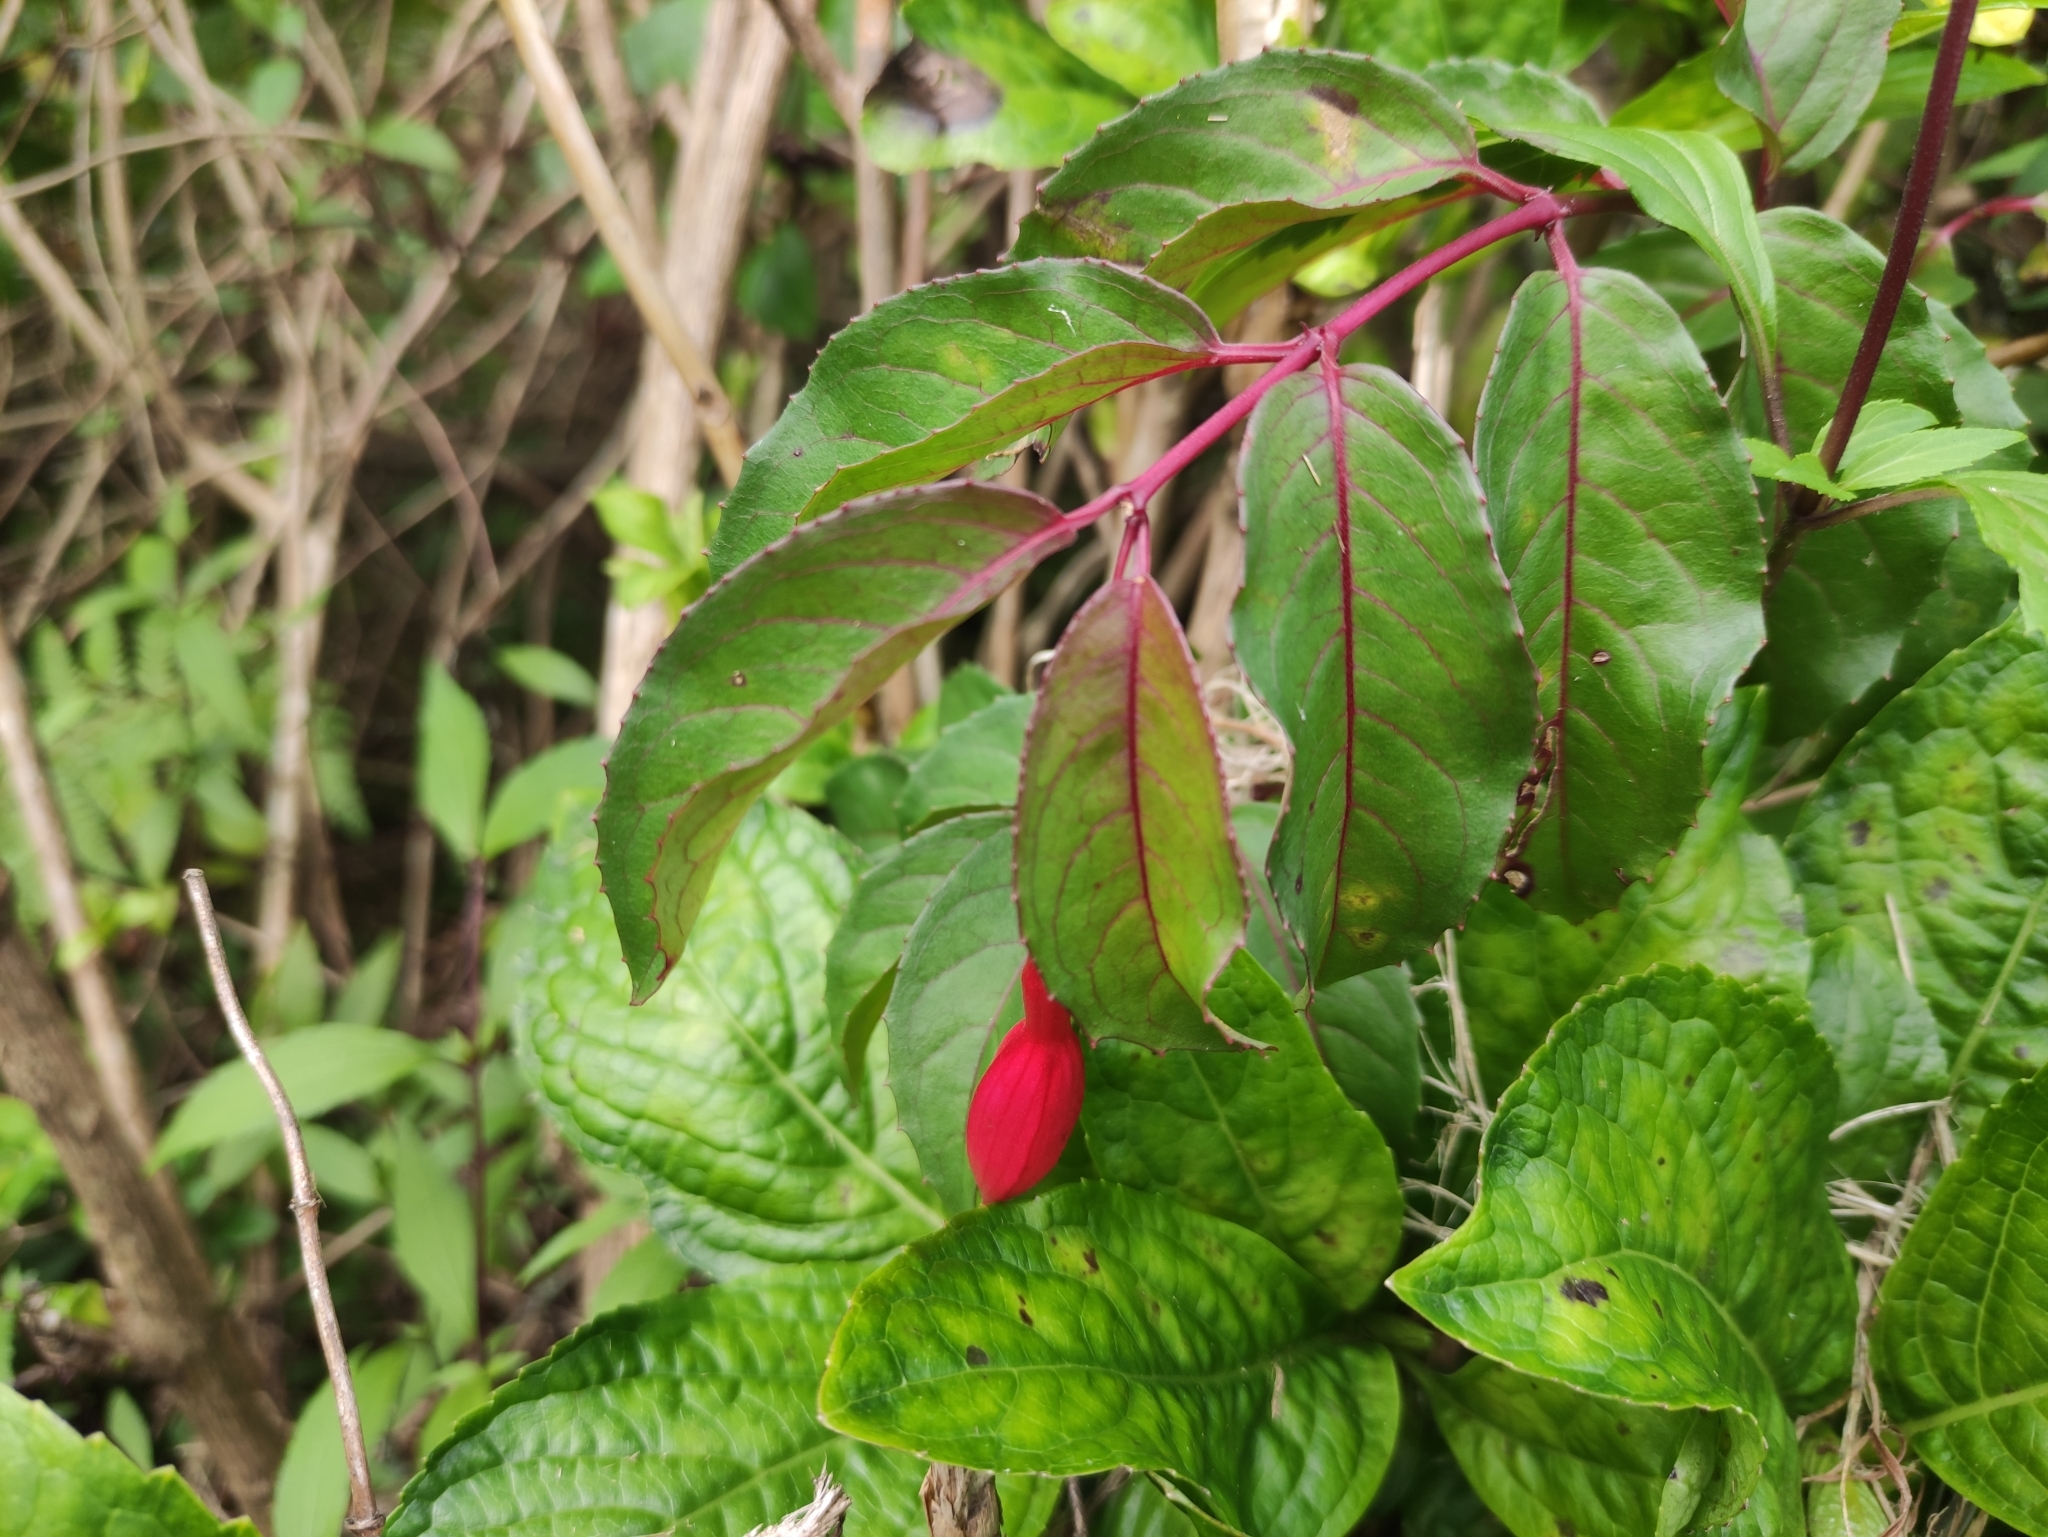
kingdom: Plantae
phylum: Tracheophyta
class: Magnoliopsida
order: Myrtales
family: Onagraceae
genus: Fuchsia
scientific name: Fuchsia magellanica
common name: Hardy fuchsia
